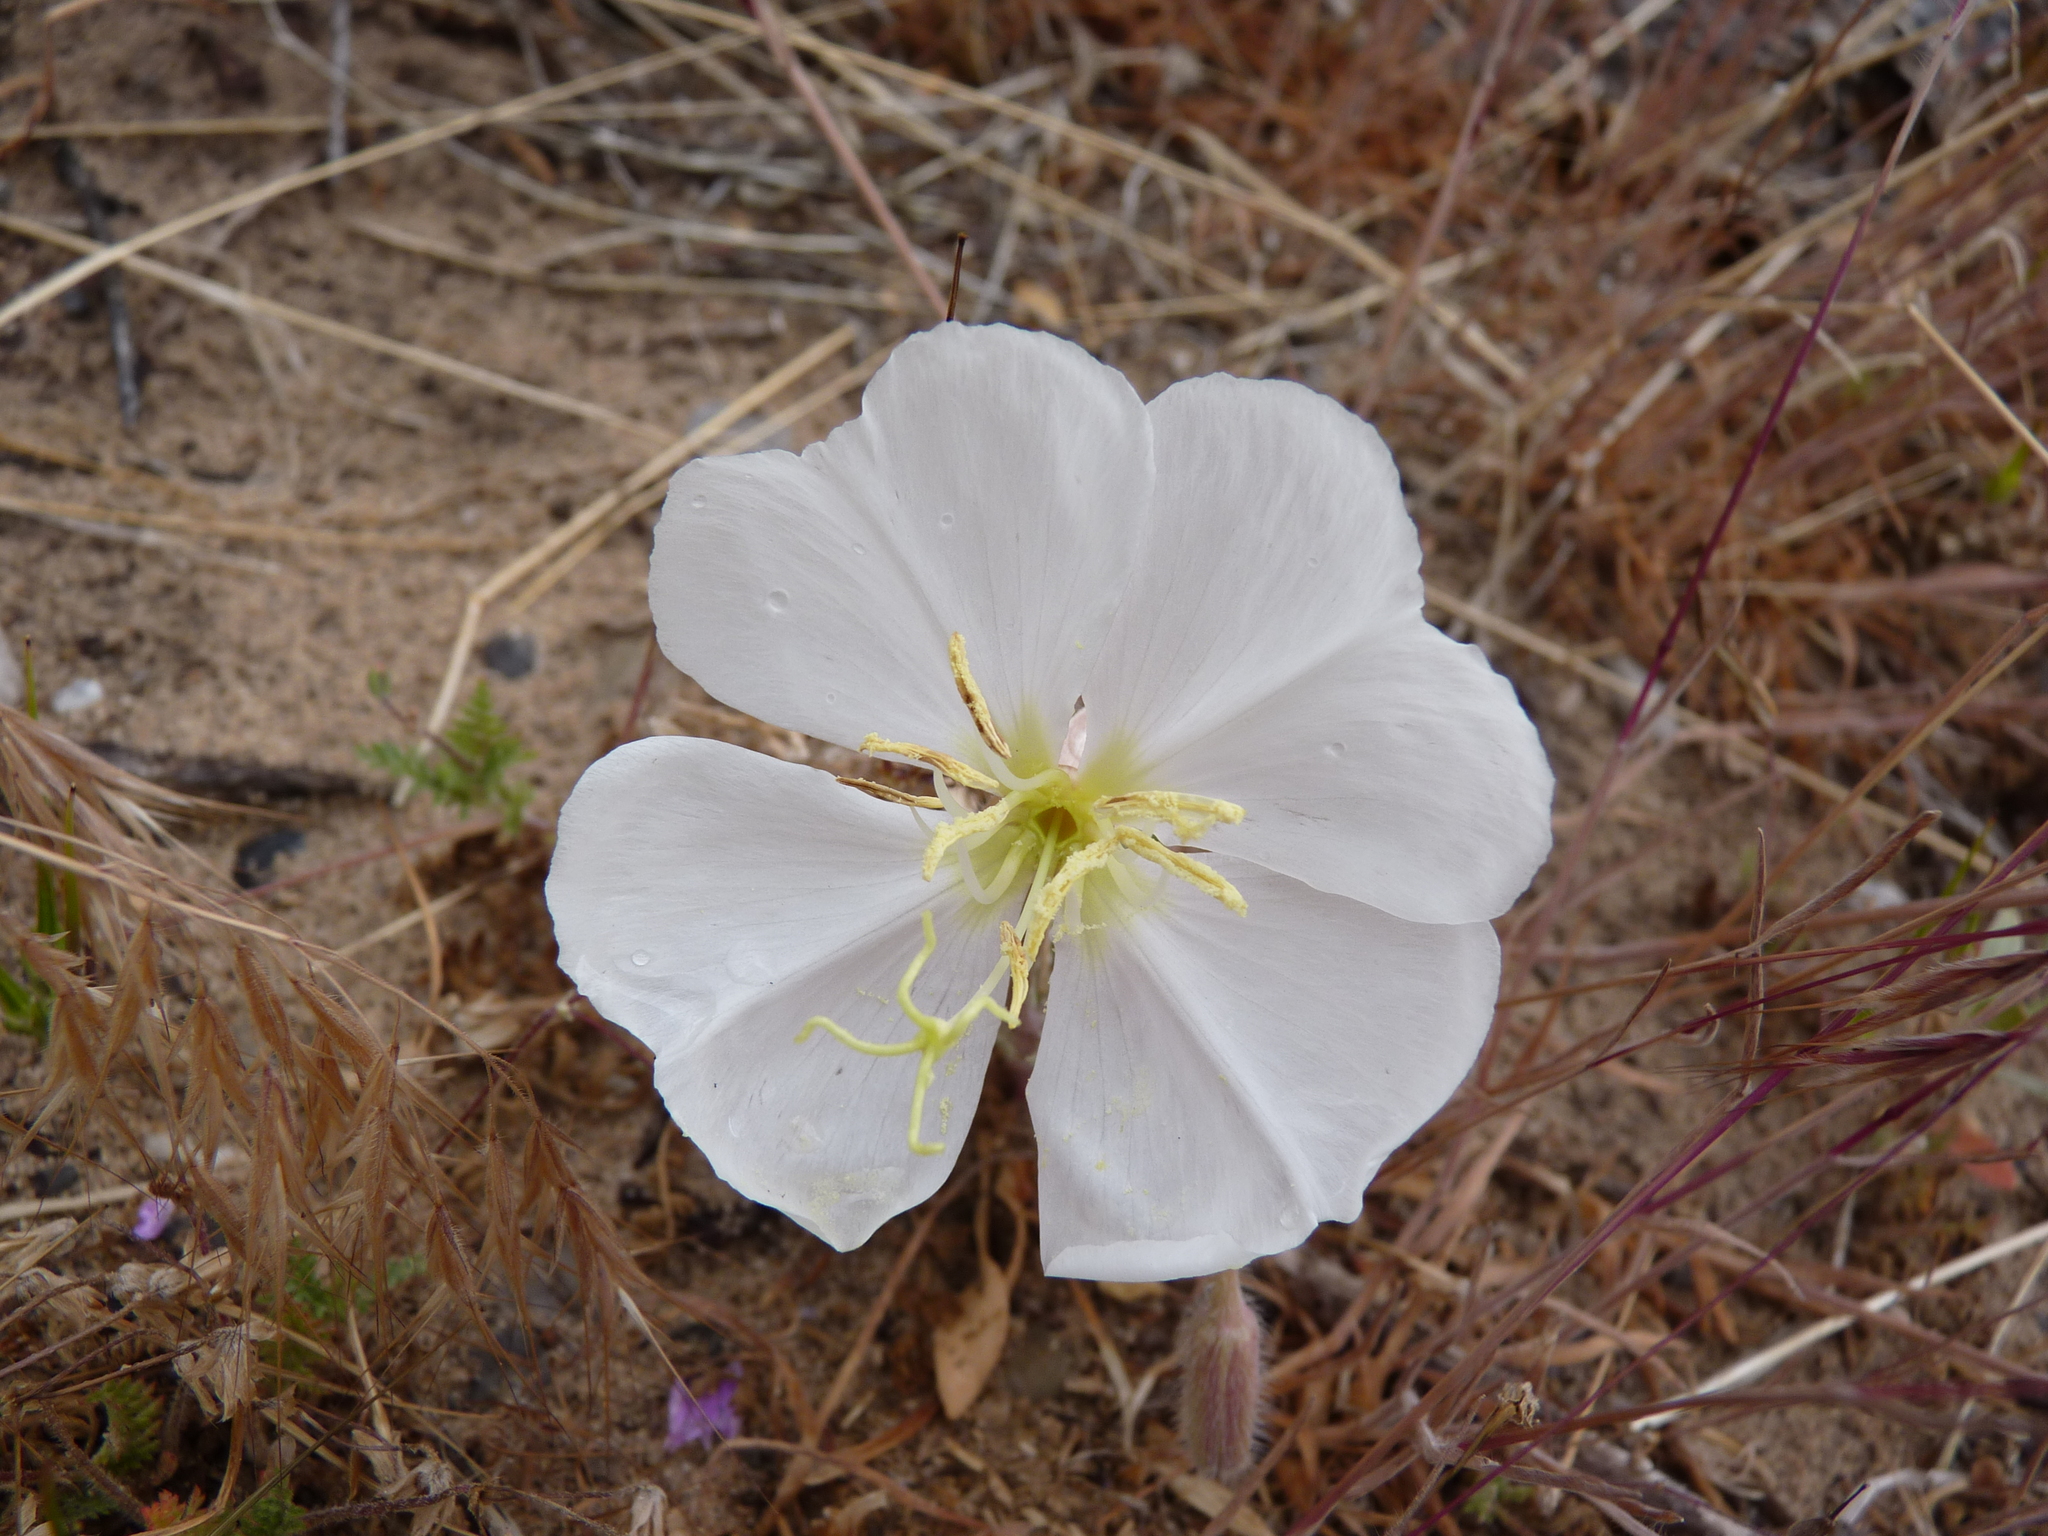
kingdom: Plantae
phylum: Tracheophyta
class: Magnoliopsida
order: Myrtales
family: Onagraceae
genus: Oenothera
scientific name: Oenothera californica
